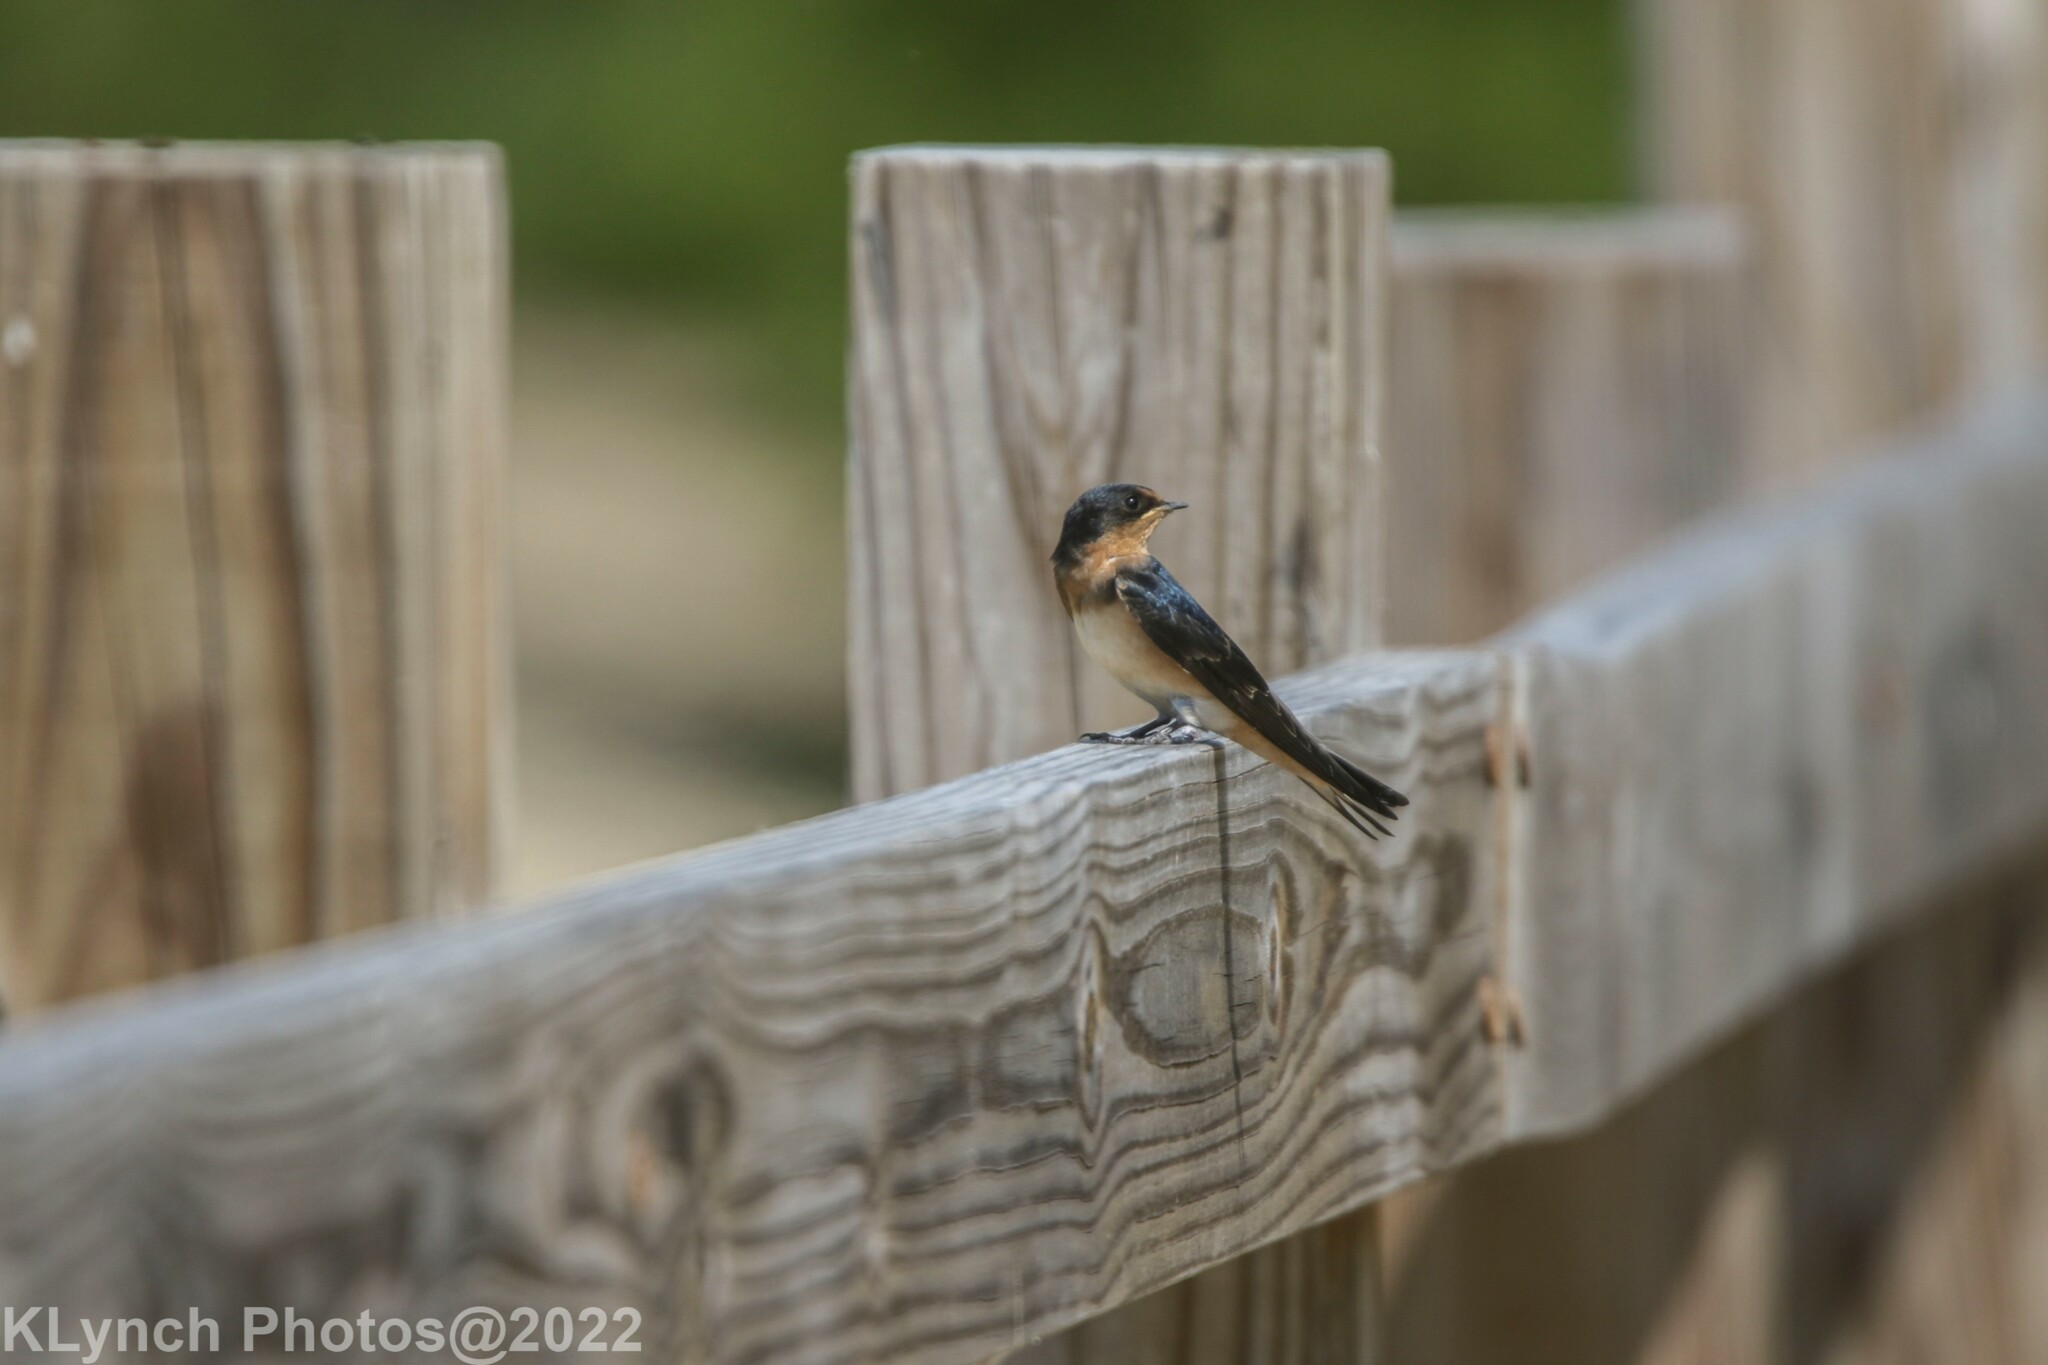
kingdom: Animalia
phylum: Chordata
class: Aves
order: Passeriformes
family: Hirundinidae
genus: Hirundo
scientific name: Hirundo rustica
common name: Barn swallow
